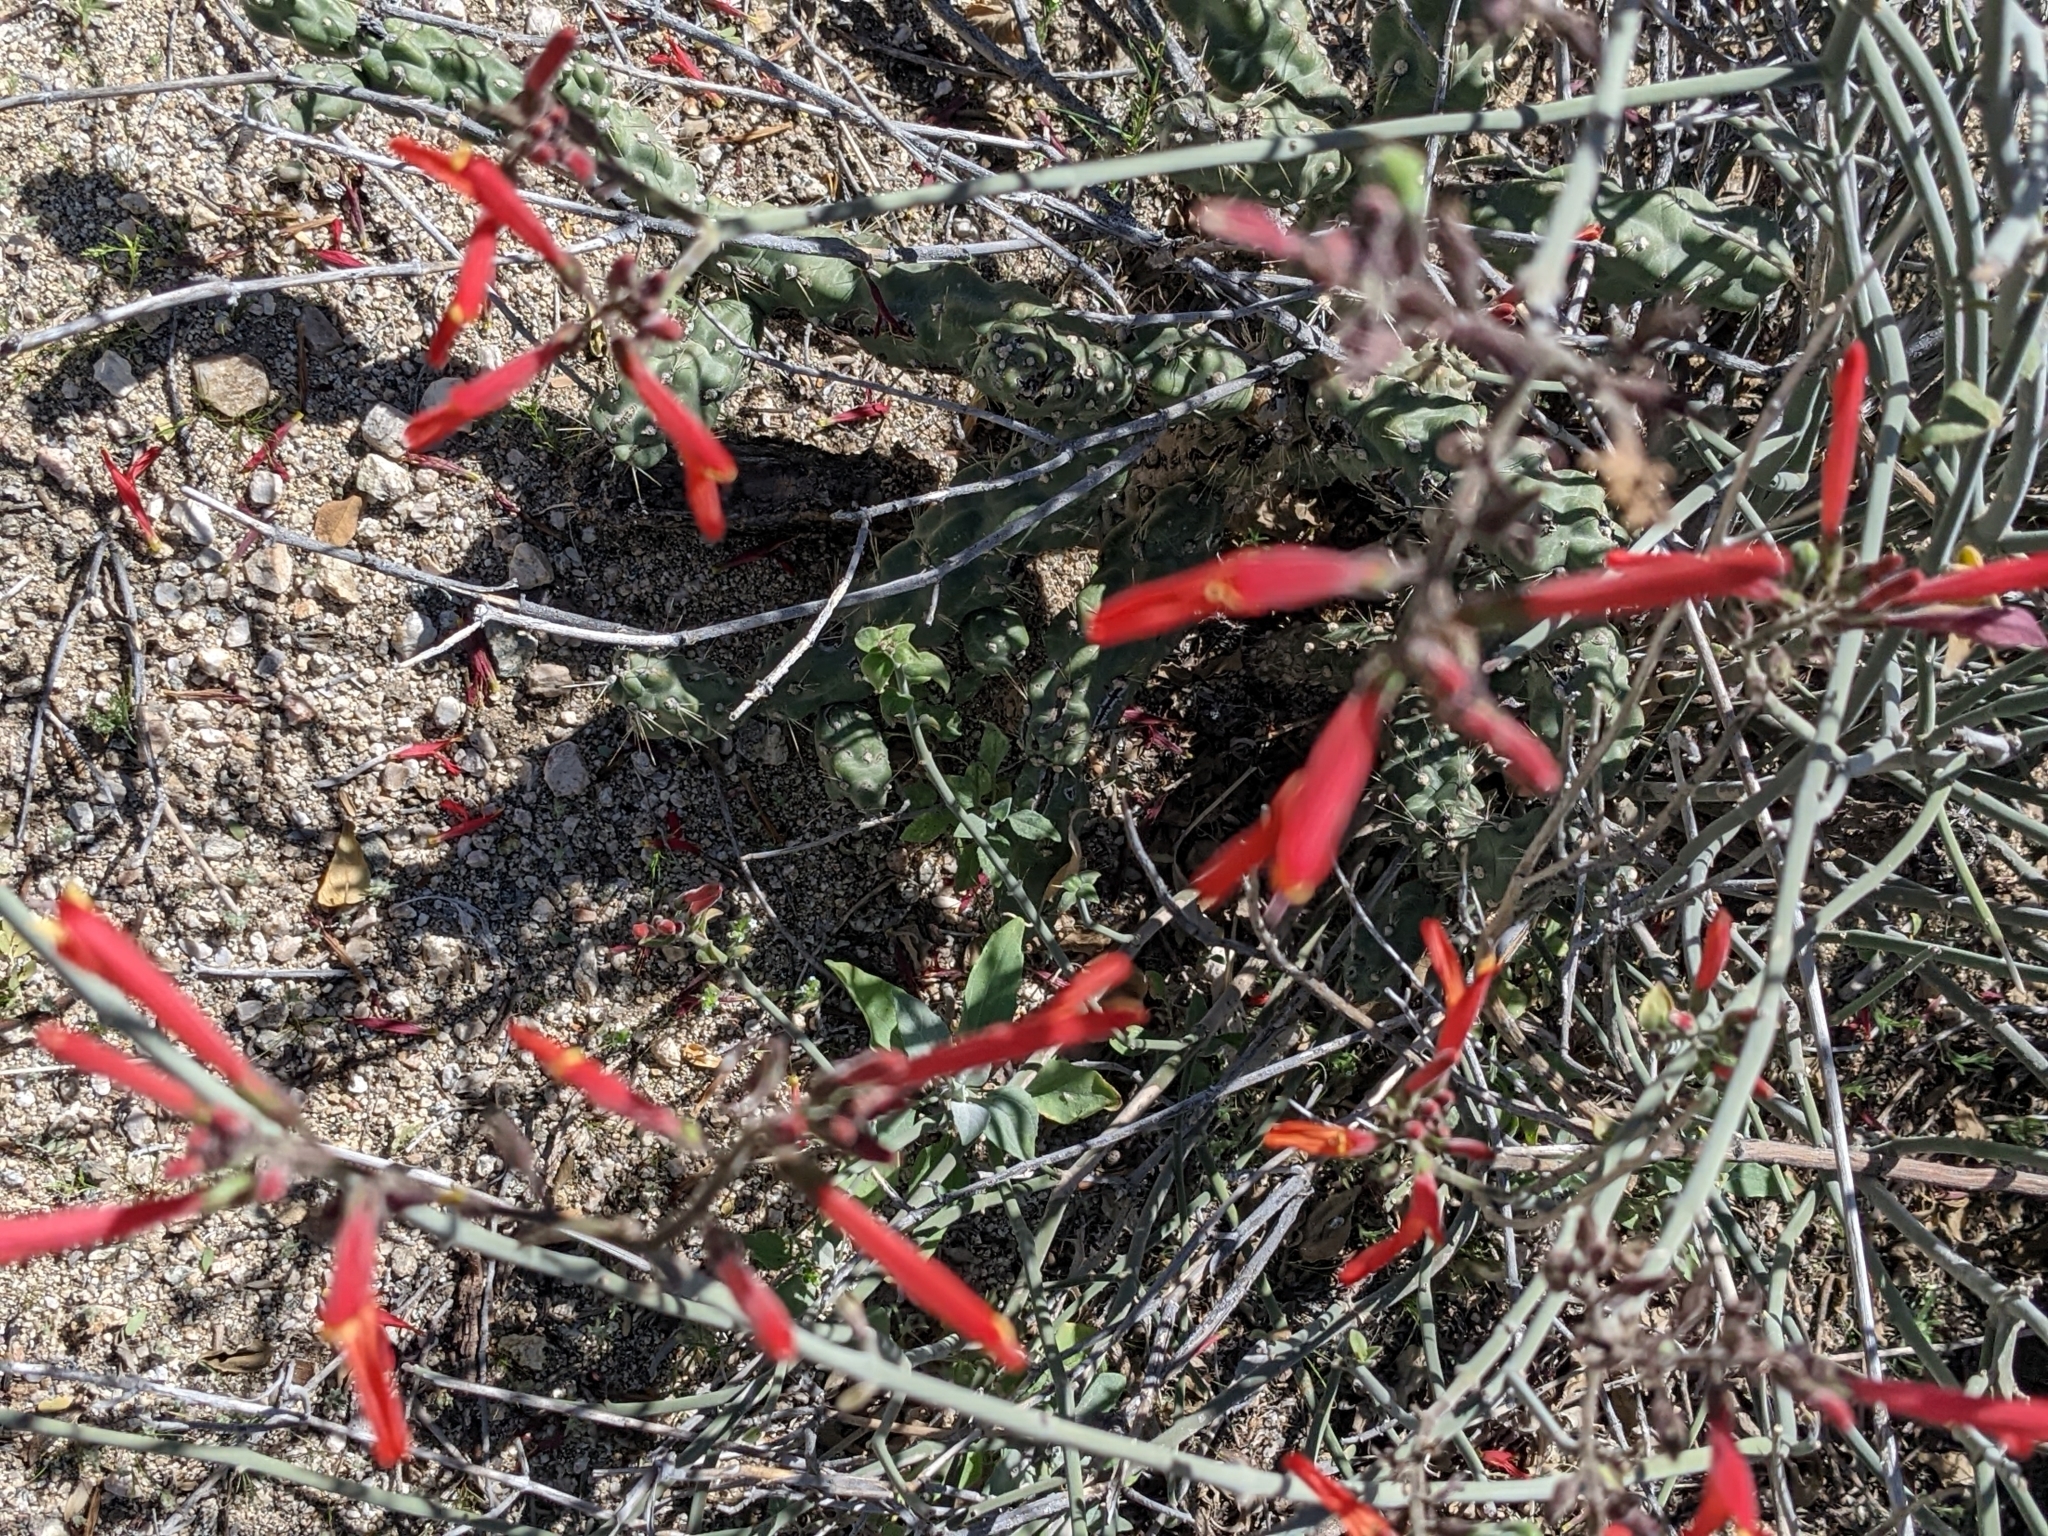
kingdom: Plantae
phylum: Tracheophyta
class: Magnoliopsida
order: Lamiales
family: Acanthaceae
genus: Justicia
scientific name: Justicia californica
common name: Chuparosa-honeysuckle
